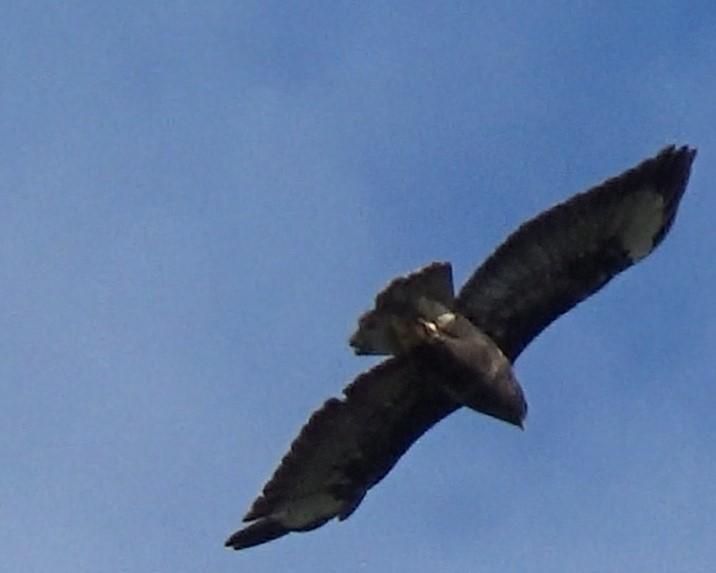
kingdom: Animalia
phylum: Chordata
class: Aves
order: Accipitriformes
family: Accipitridae
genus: Buteo
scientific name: Buteo buteo
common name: Common buzzard
